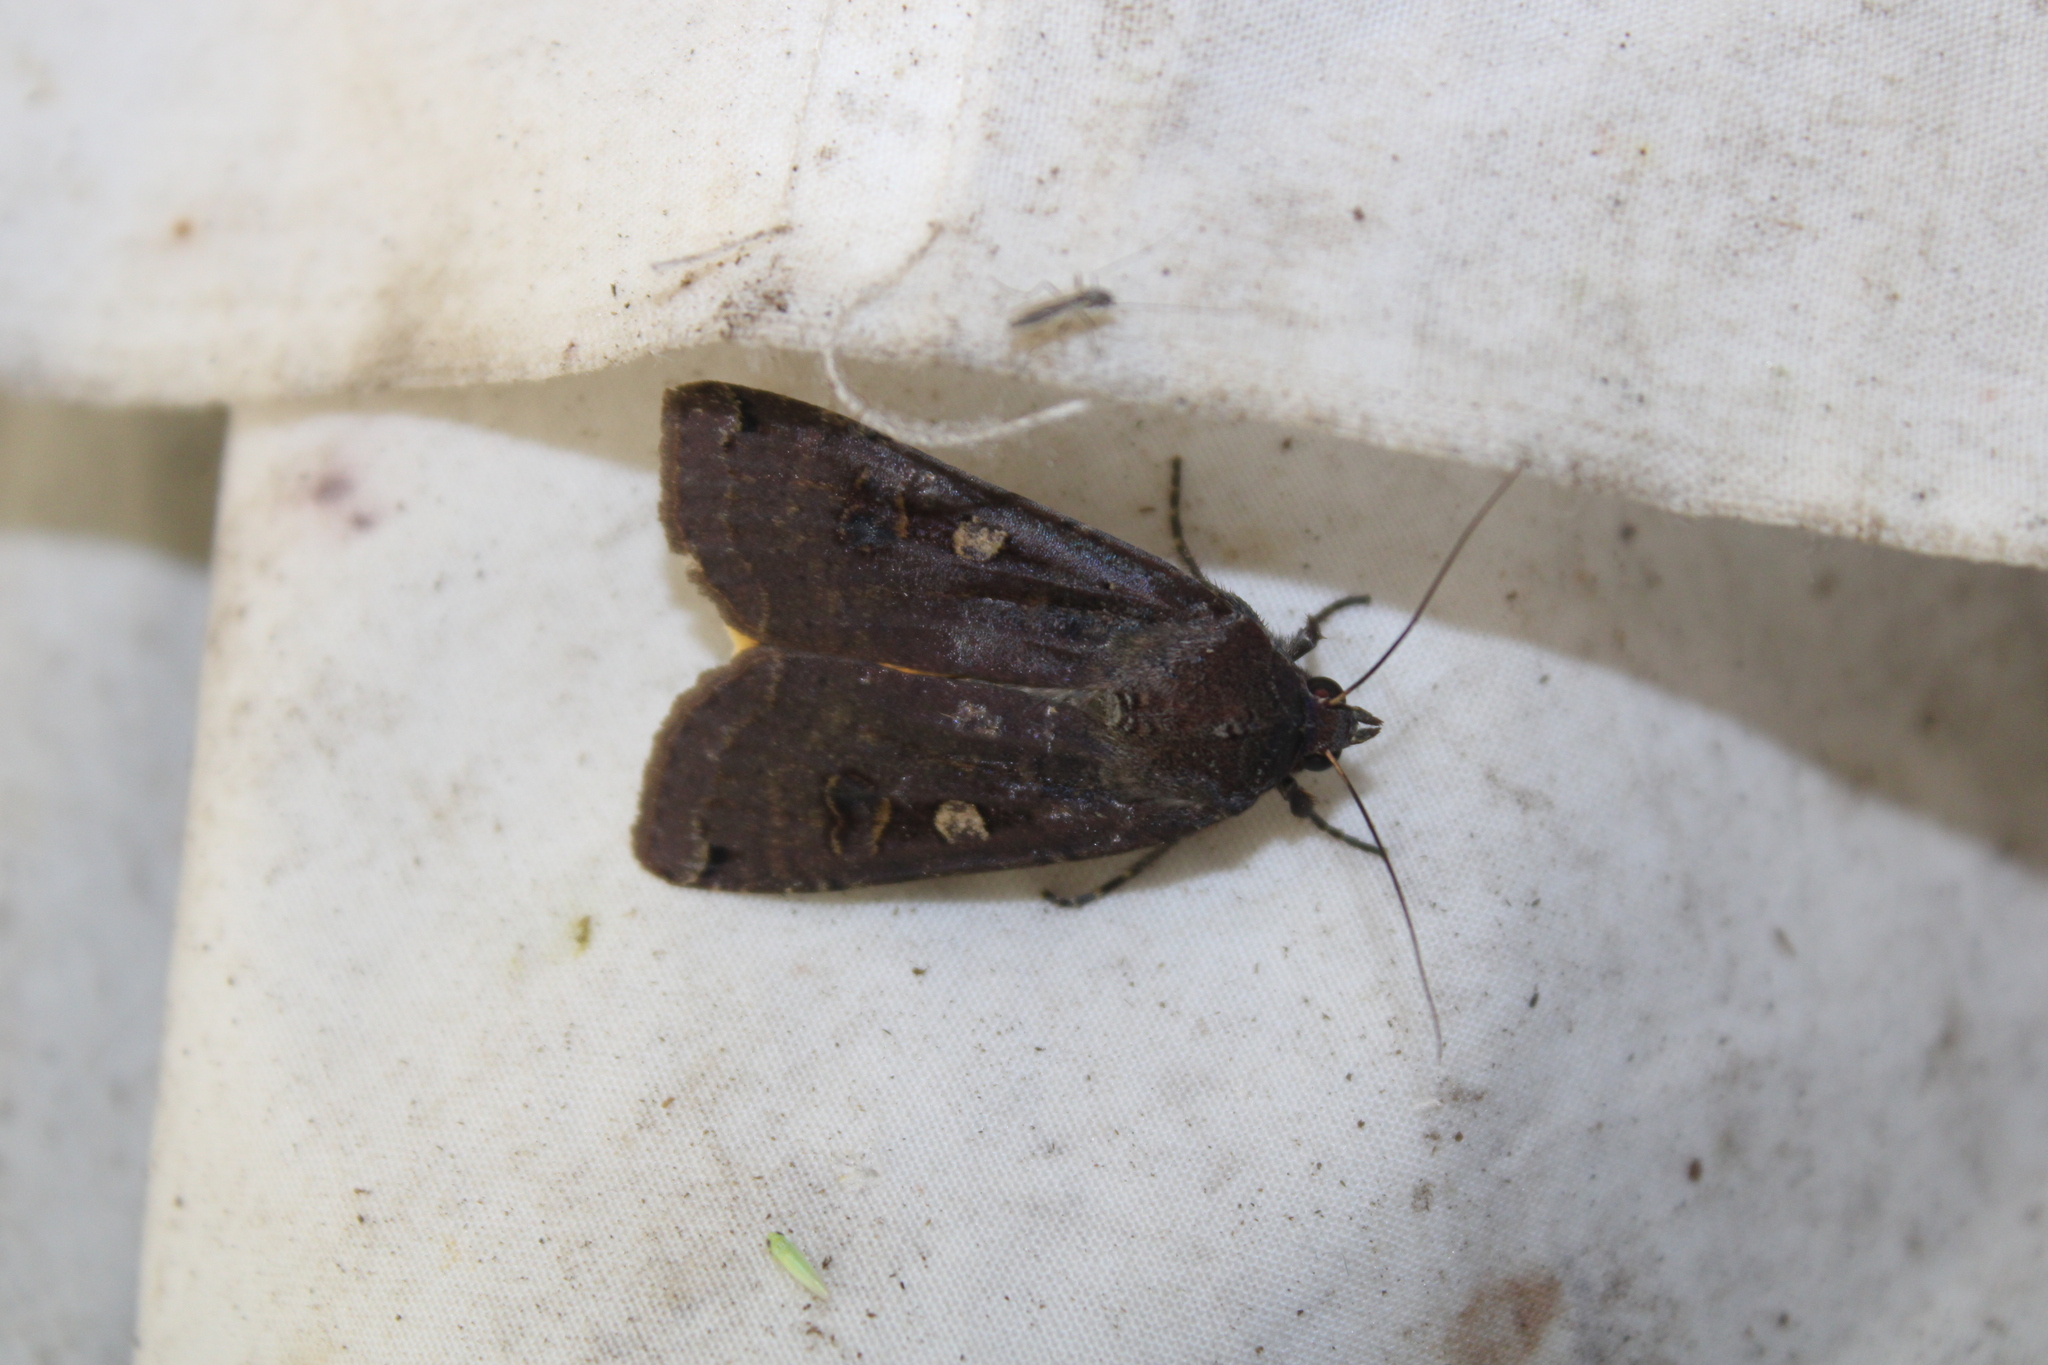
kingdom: Animalia
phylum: Arthropoda
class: Insecta
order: Lepidoptera
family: Noctuidae
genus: Noctua
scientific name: Noctua pronuba
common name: Large yellow underwing
